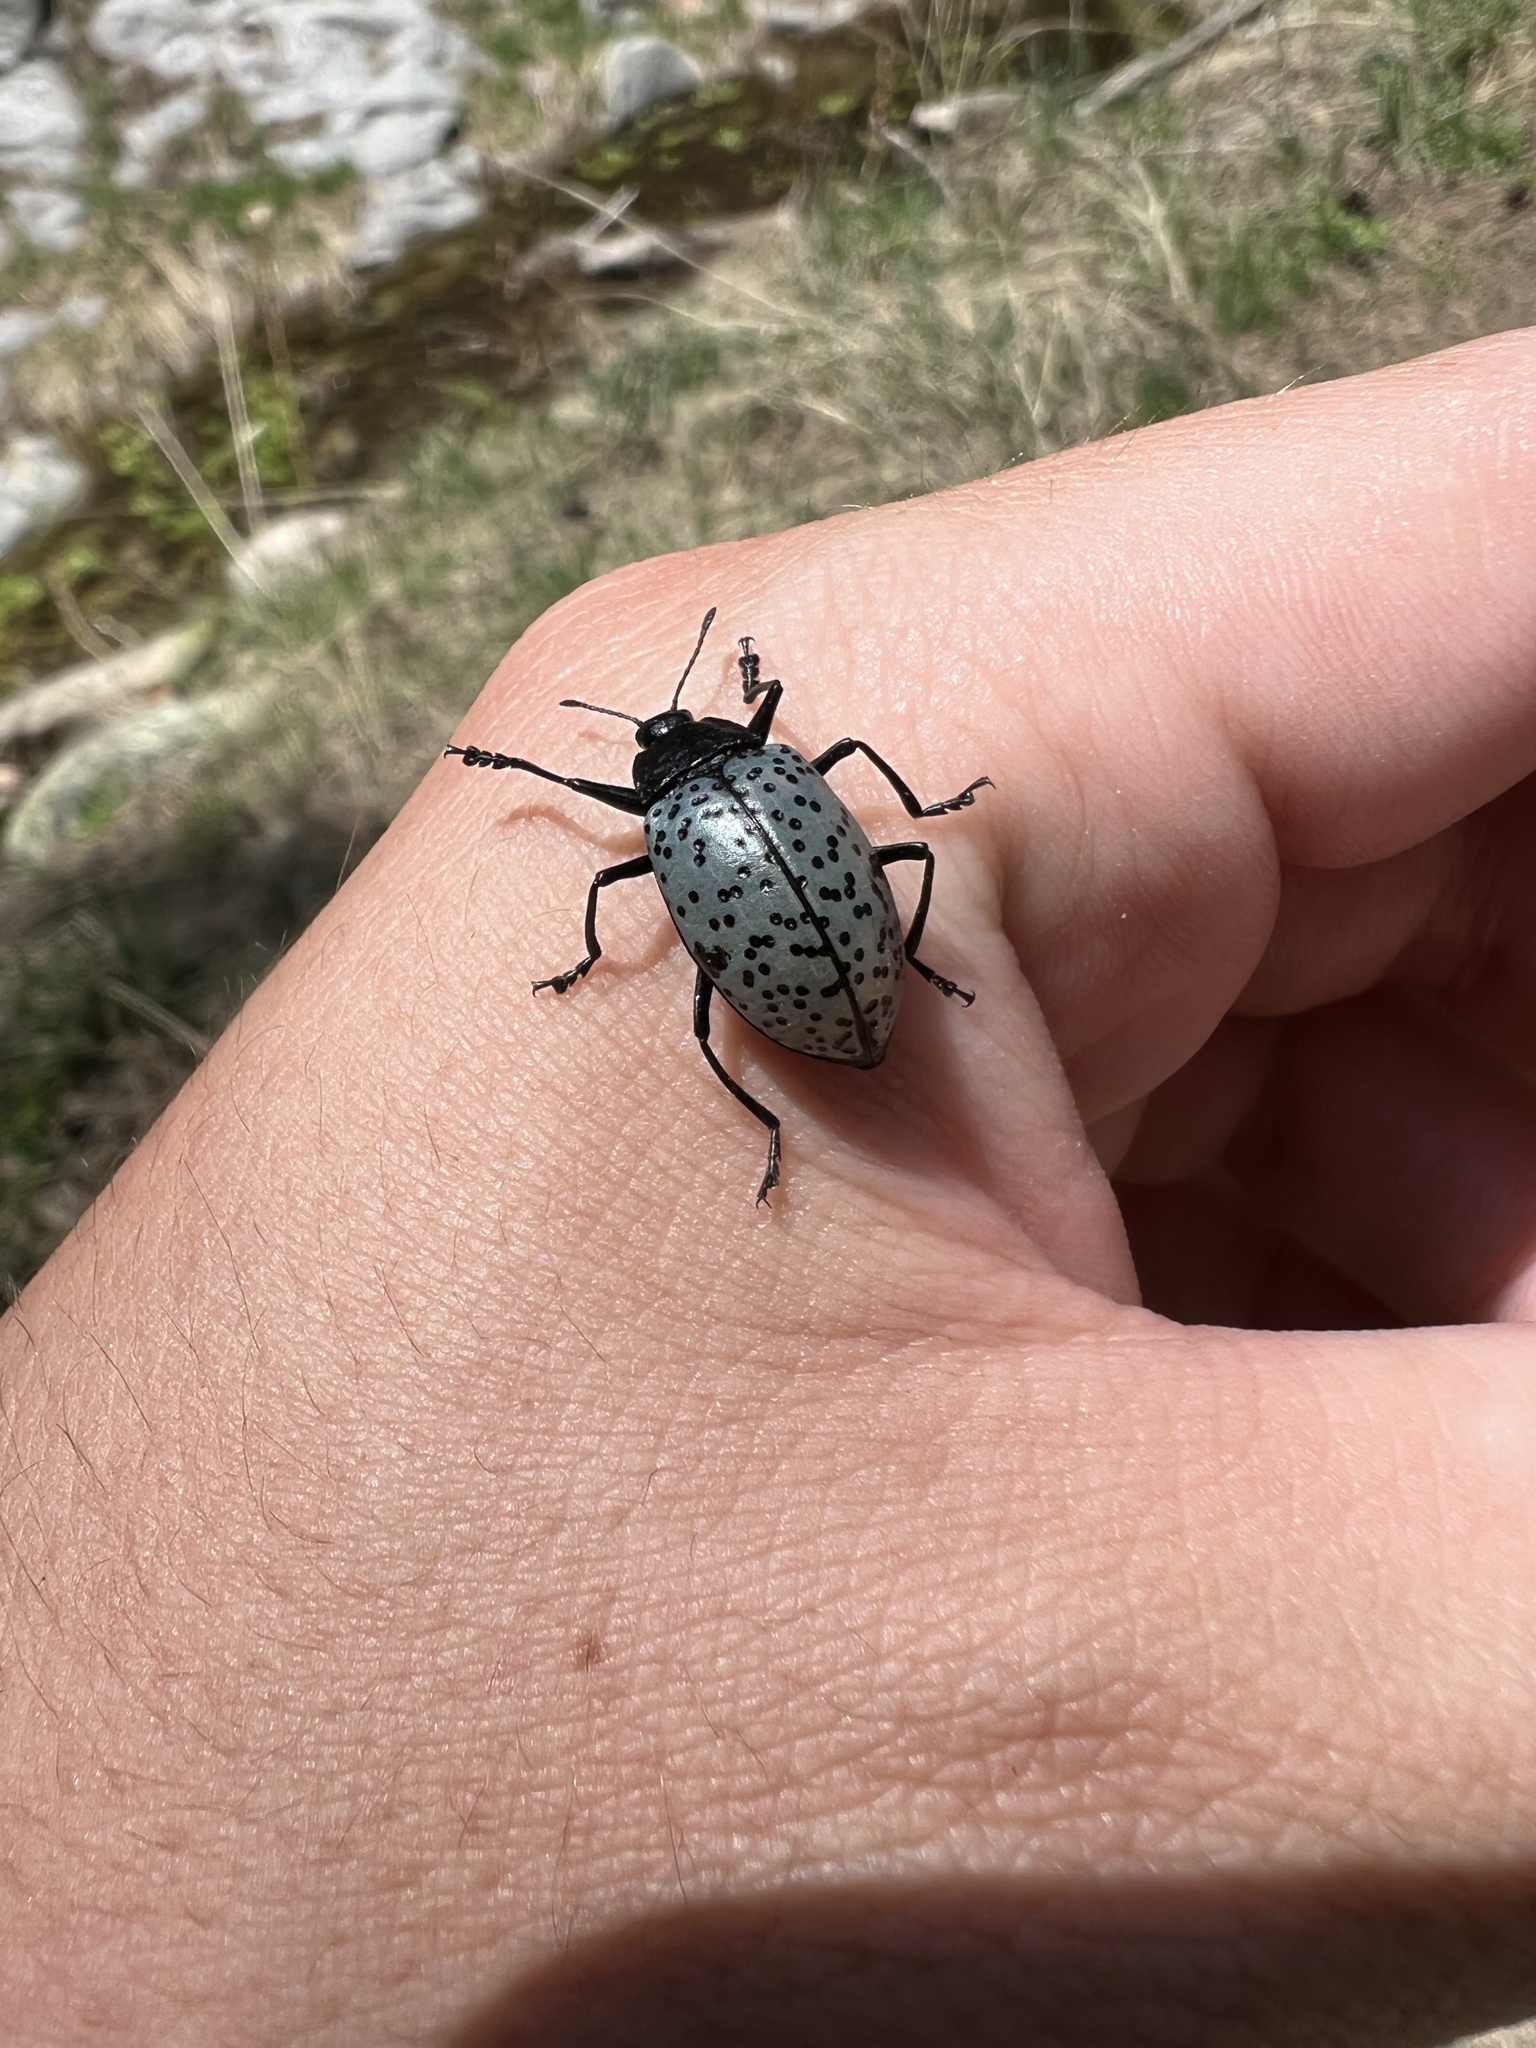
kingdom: Animalia
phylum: Arthropoda
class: Insecta
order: Coleoptera
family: Erotylidae
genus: Gibbifer
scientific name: Gibbifer californicus
